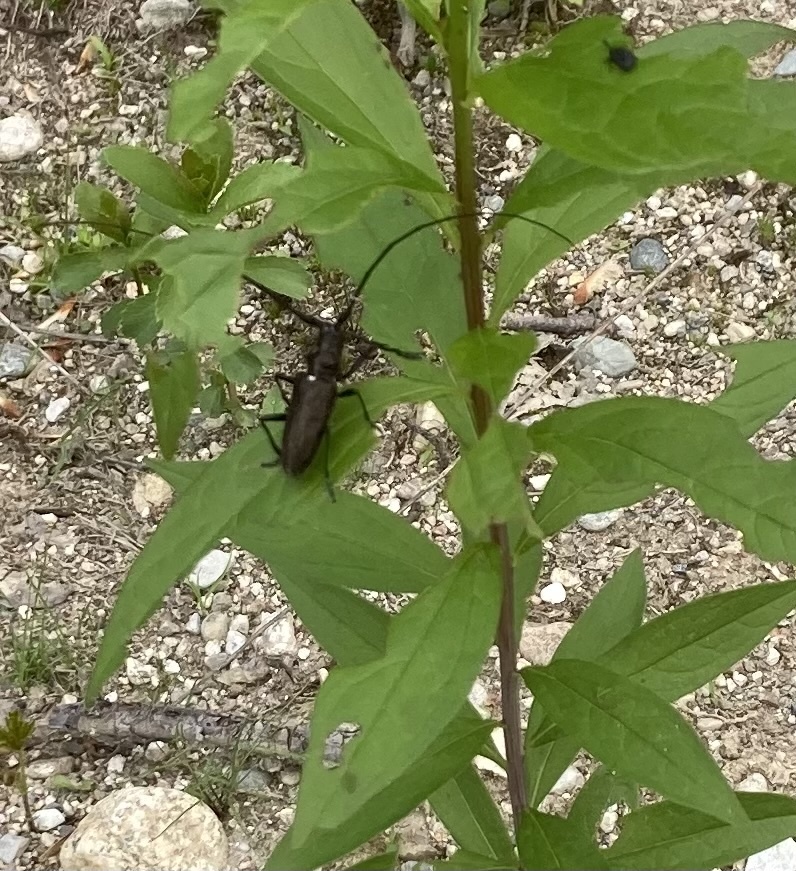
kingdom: Animalia
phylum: Arthropoda
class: Insecta
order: Coleoptera
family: Cerambycidae
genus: Monochamus
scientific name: Monochamus scutellatus
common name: White-spotted sawyer beetle
